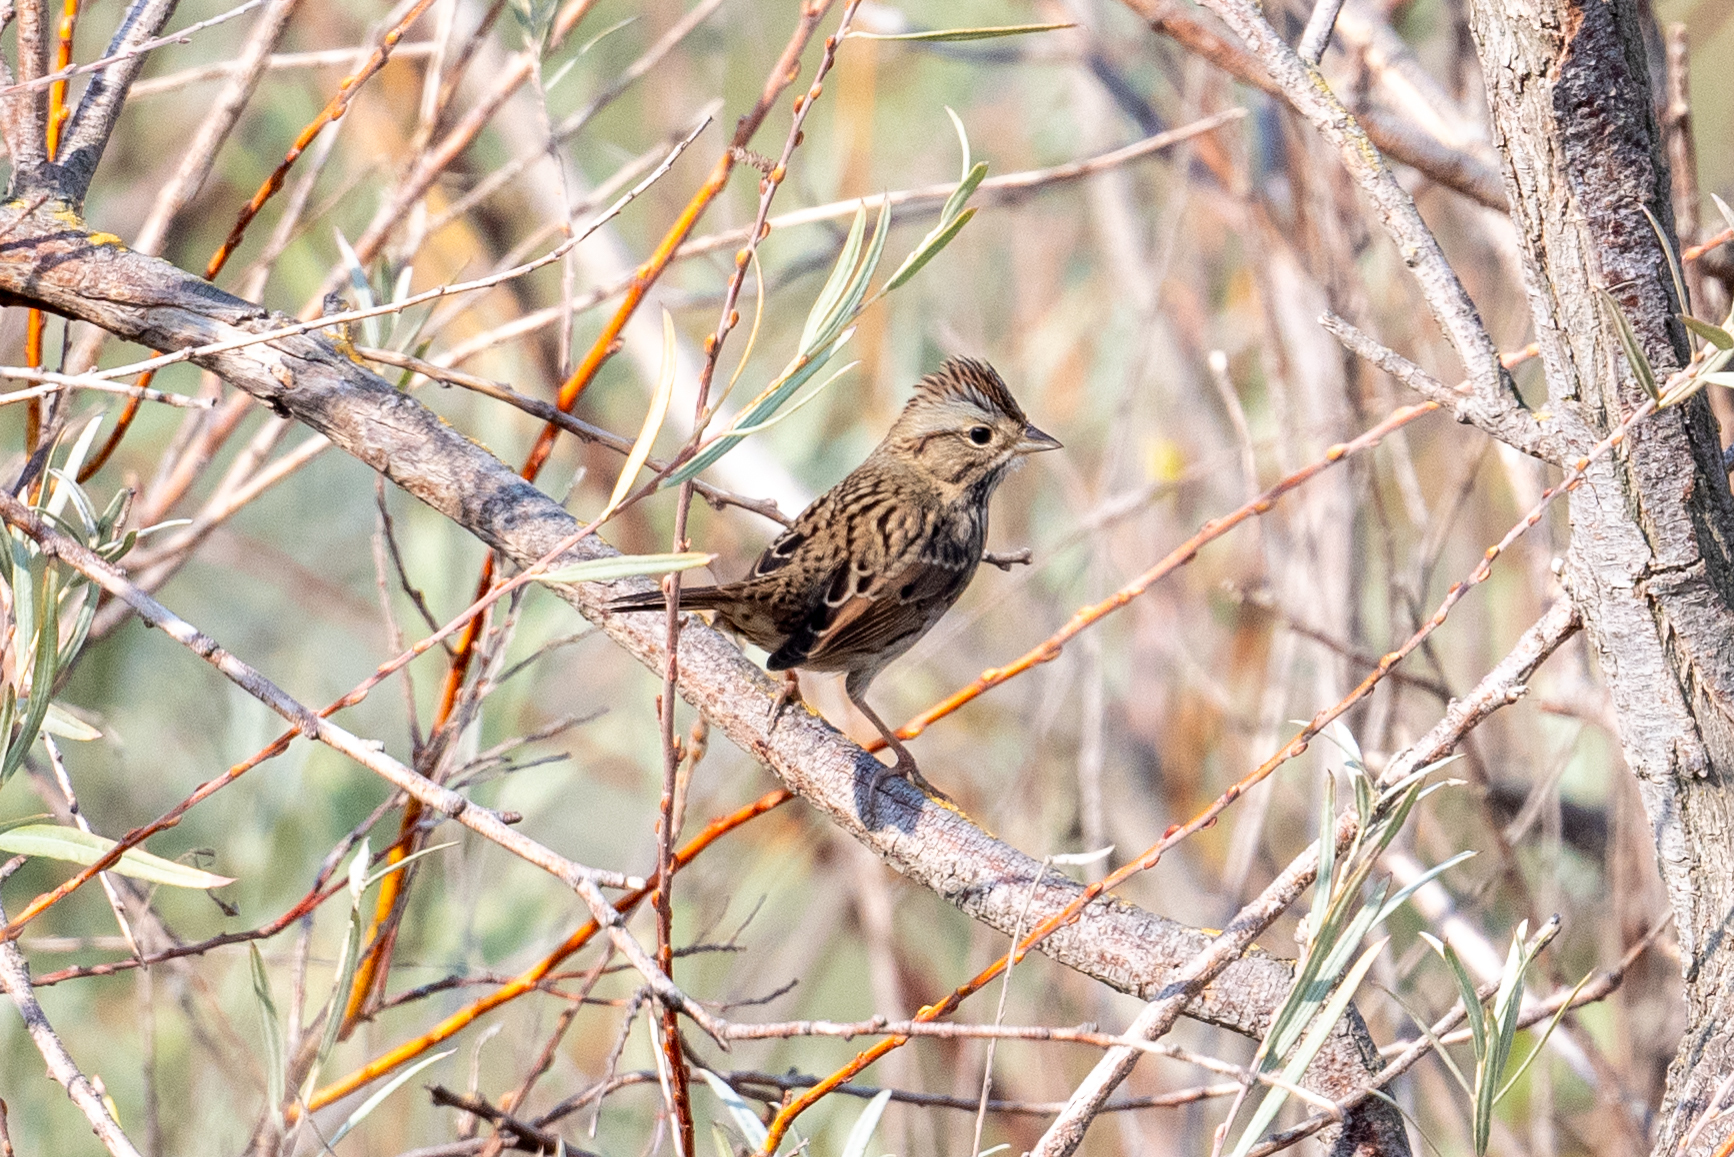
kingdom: Animalia
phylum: Chordata
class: Aves
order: Passeriformes
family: Passerellidae
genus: Melospiza
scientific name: Melospiza lincolnii
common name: Lincoln's sparrow
